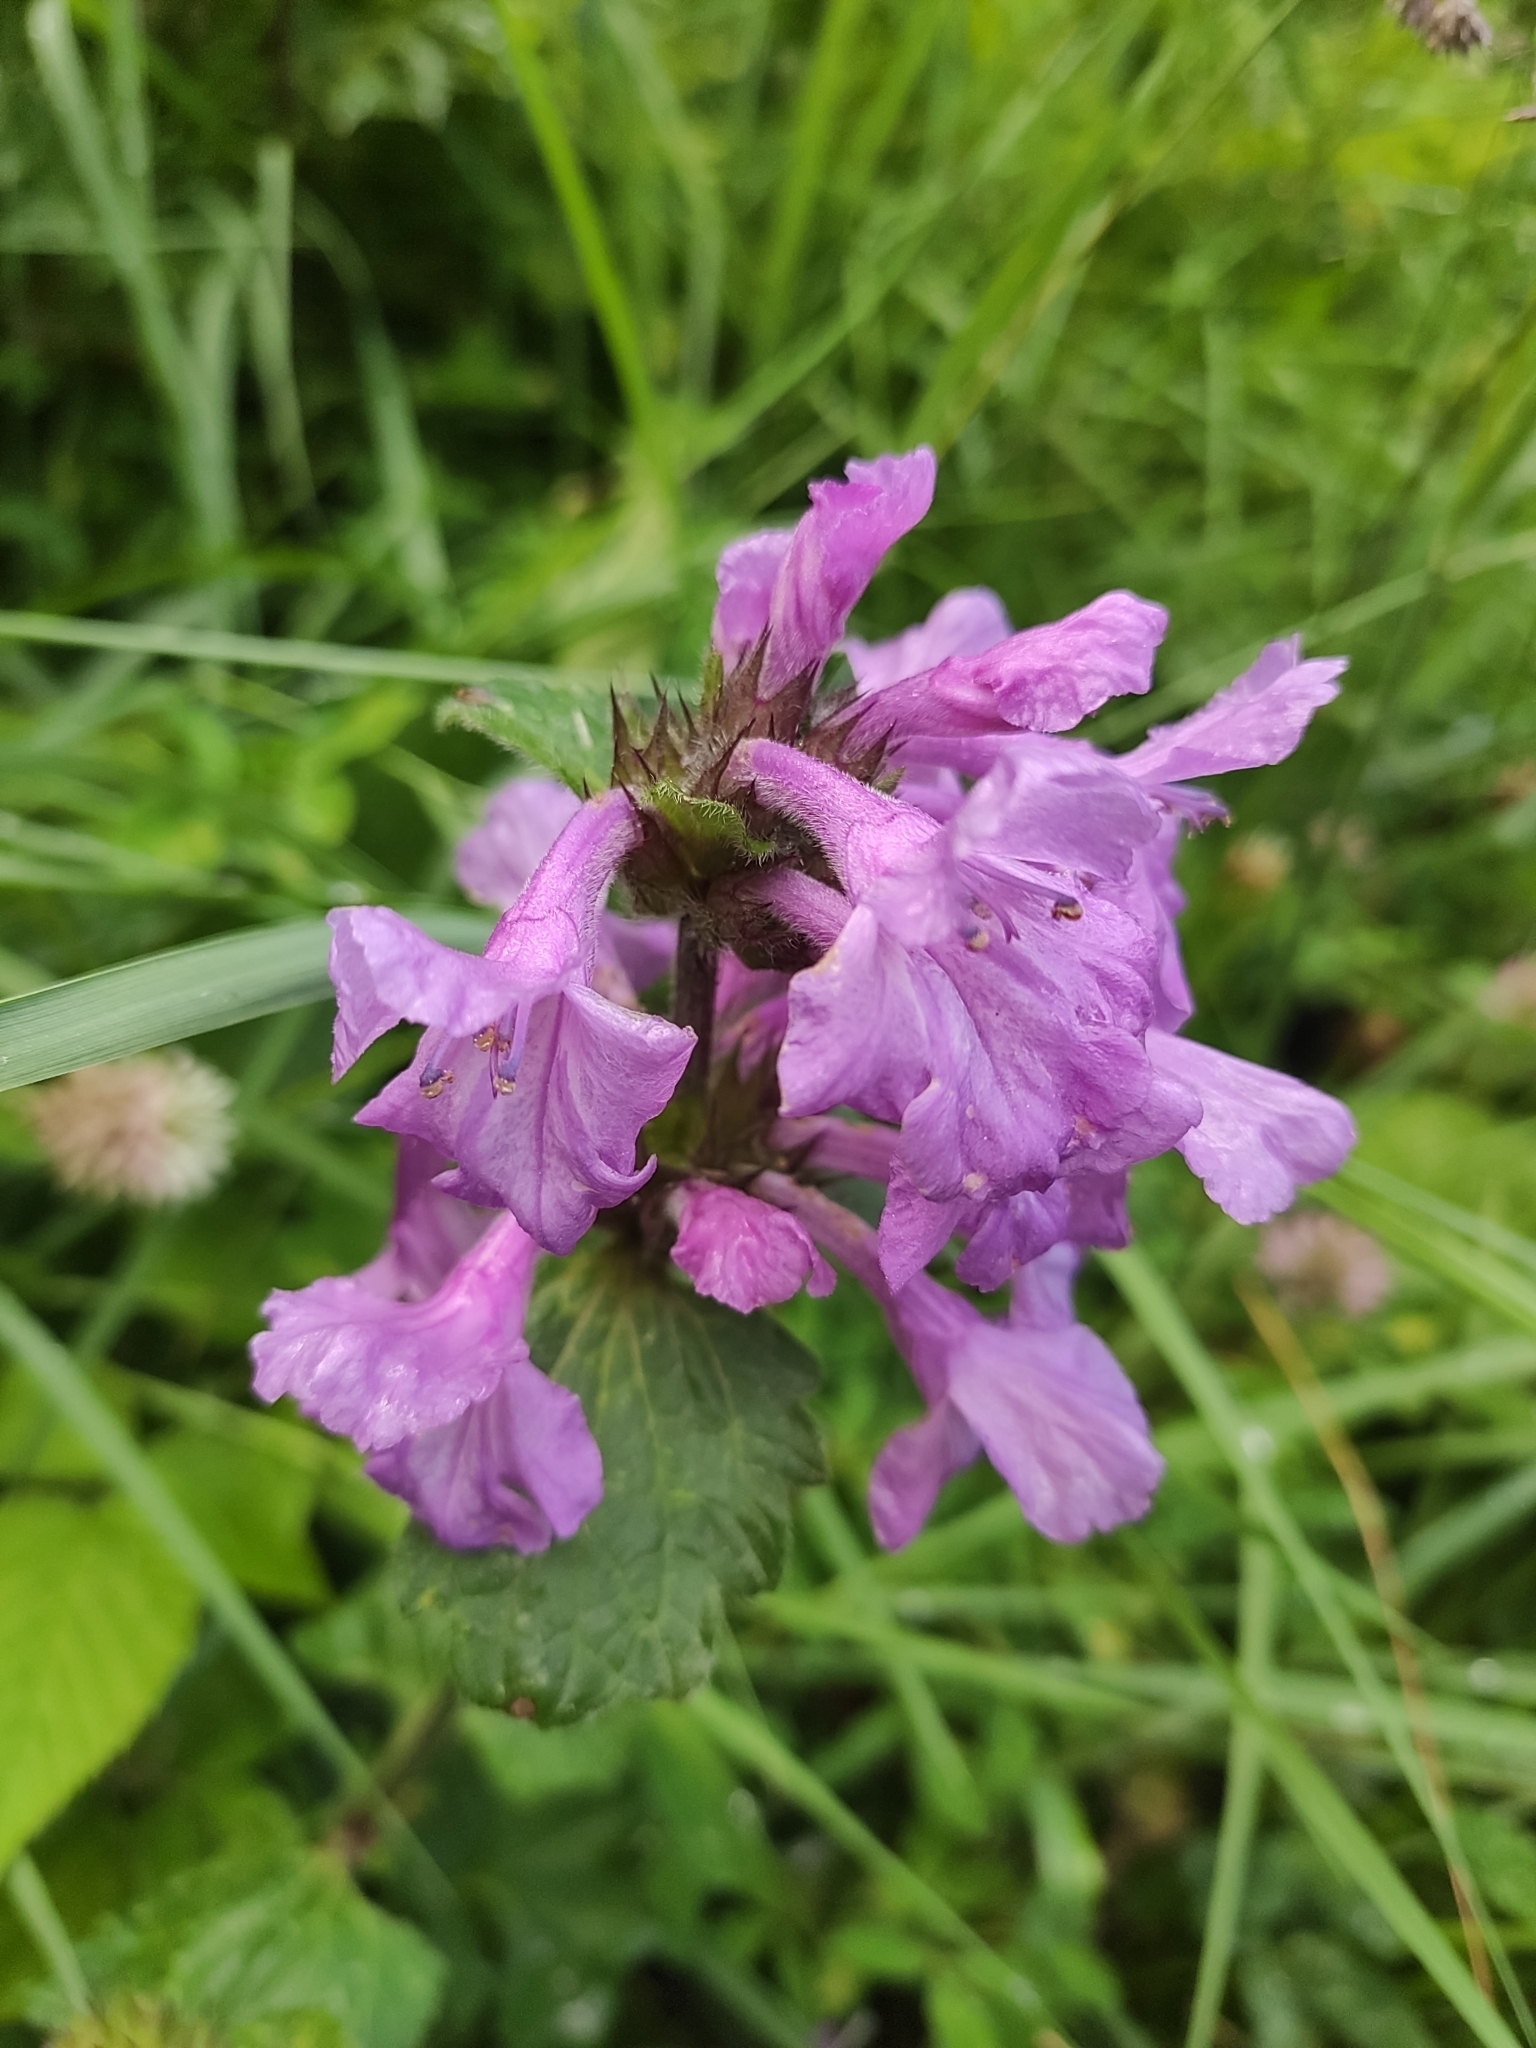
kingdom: Plantae
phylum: Tracheophyta
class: Magnoliopsida
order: Lamiales
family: Lamiaceae
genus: Betonica
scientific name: Betonica macrantha
